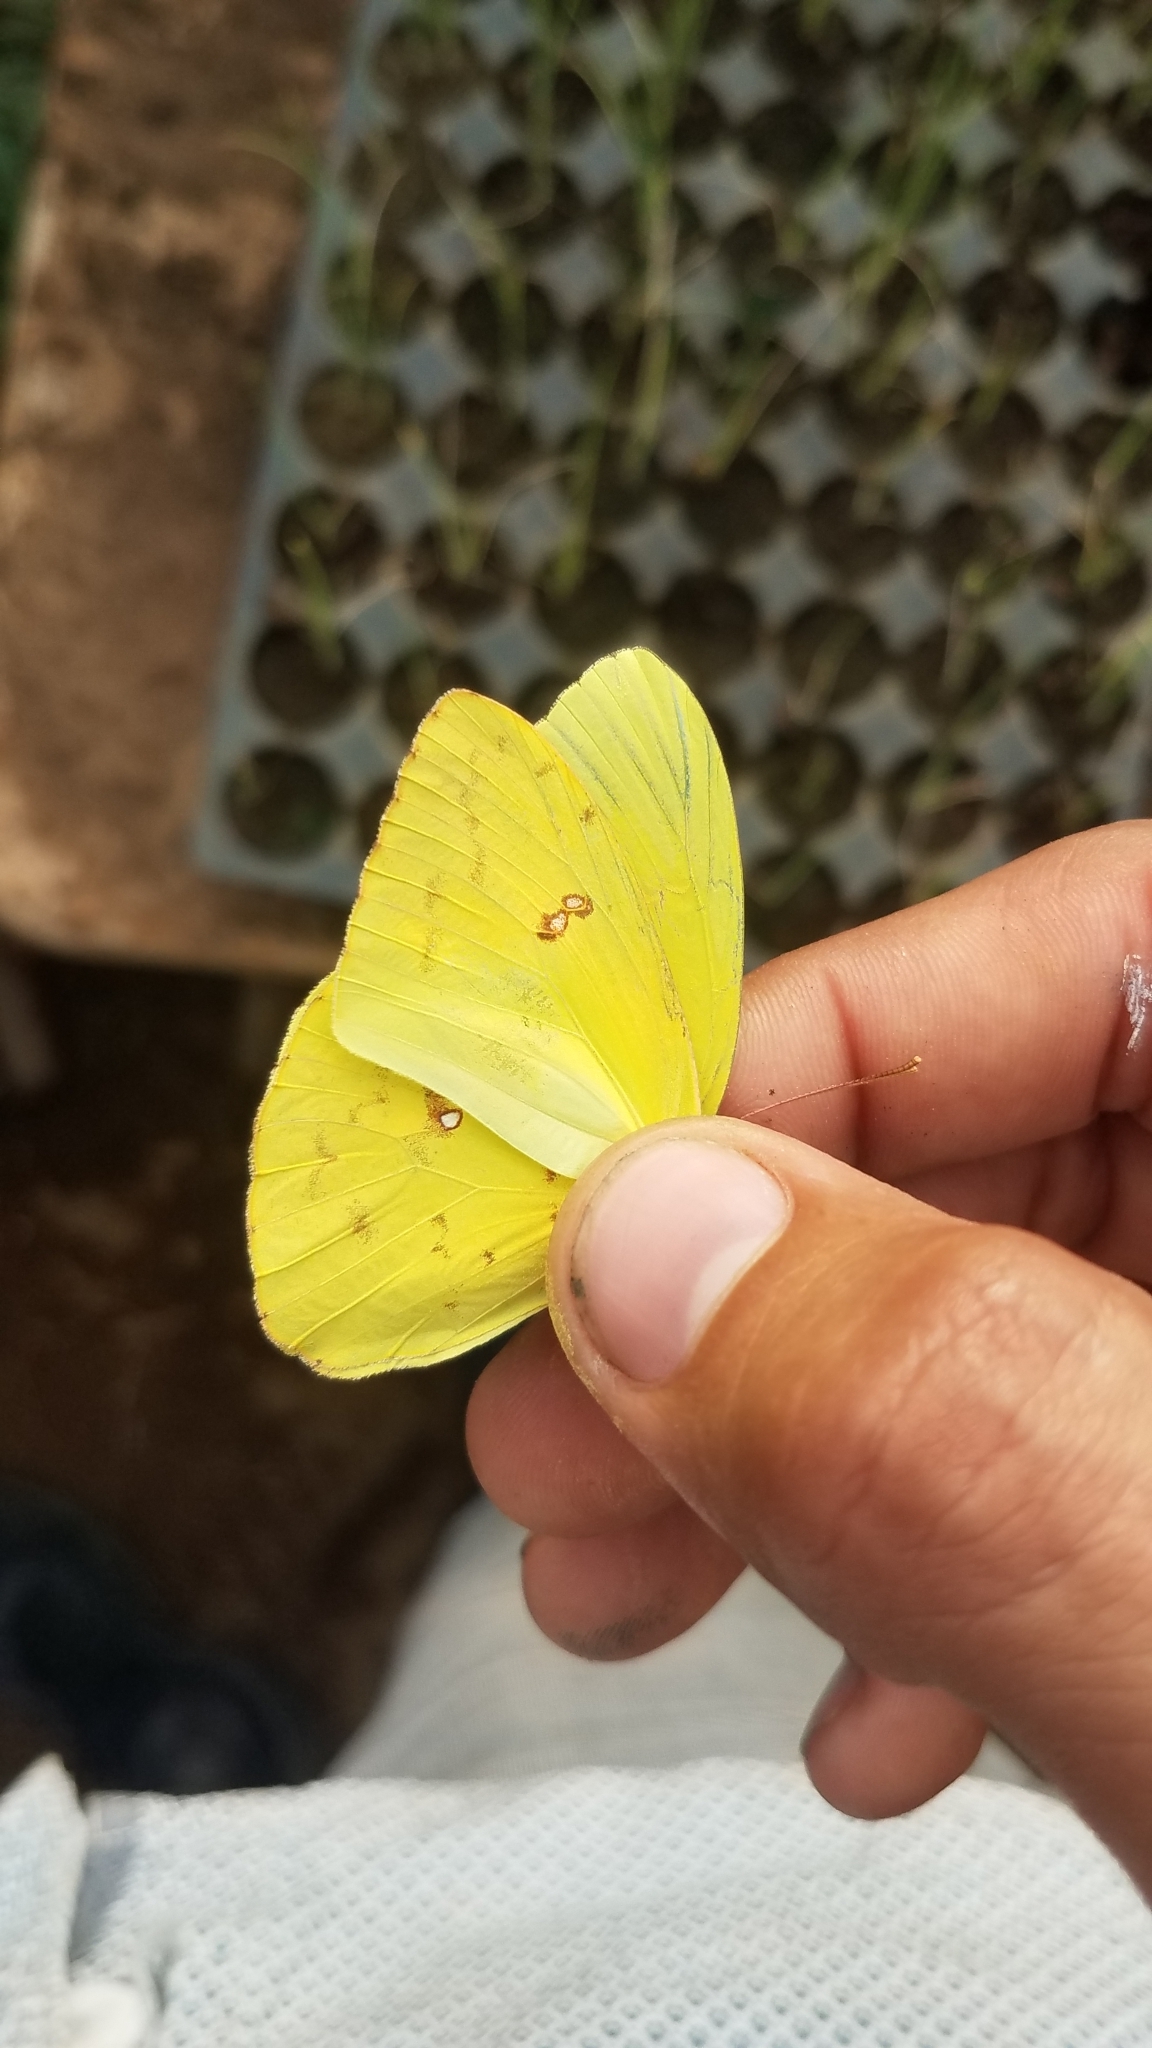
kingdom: Animalia
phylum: Arthropoda
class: Insecta
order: Lepidoptera
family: Pieridae
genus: Phoebis
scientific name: Phoebis sennae
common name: Cloudless sulphur
